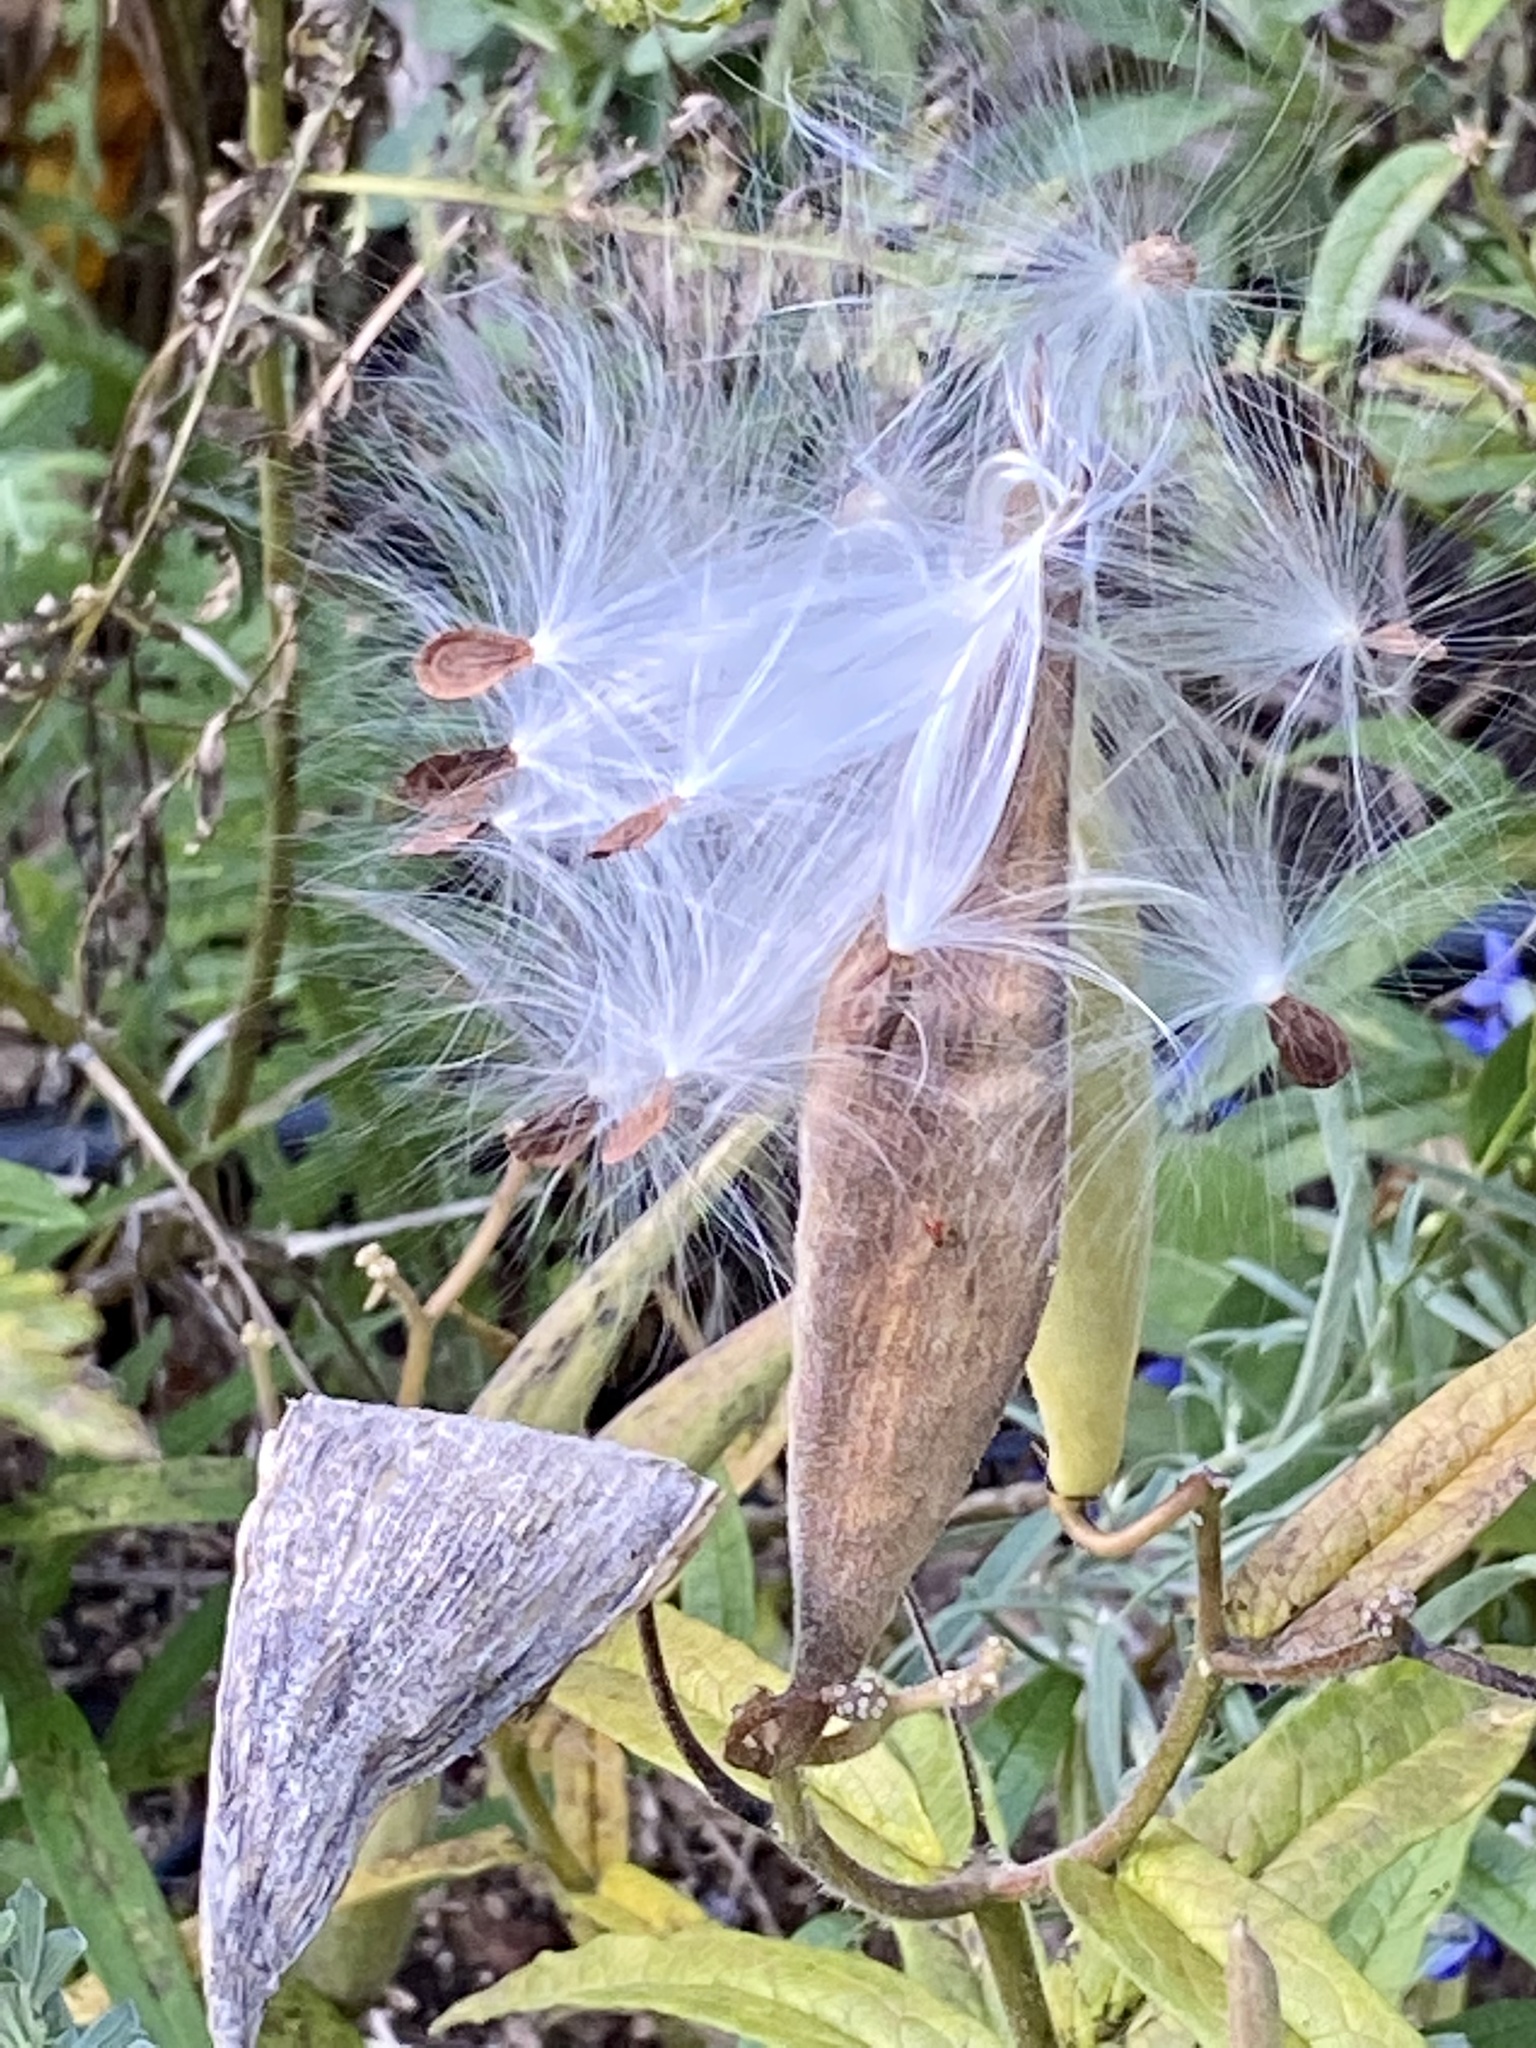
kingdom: Plantae
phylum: Tracheophyta
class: Magnoliopsida
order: Gentianales
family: Apocynaceae
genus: Asclepias
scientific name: Asclepias tuberosa
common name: Butterfly milkweed
